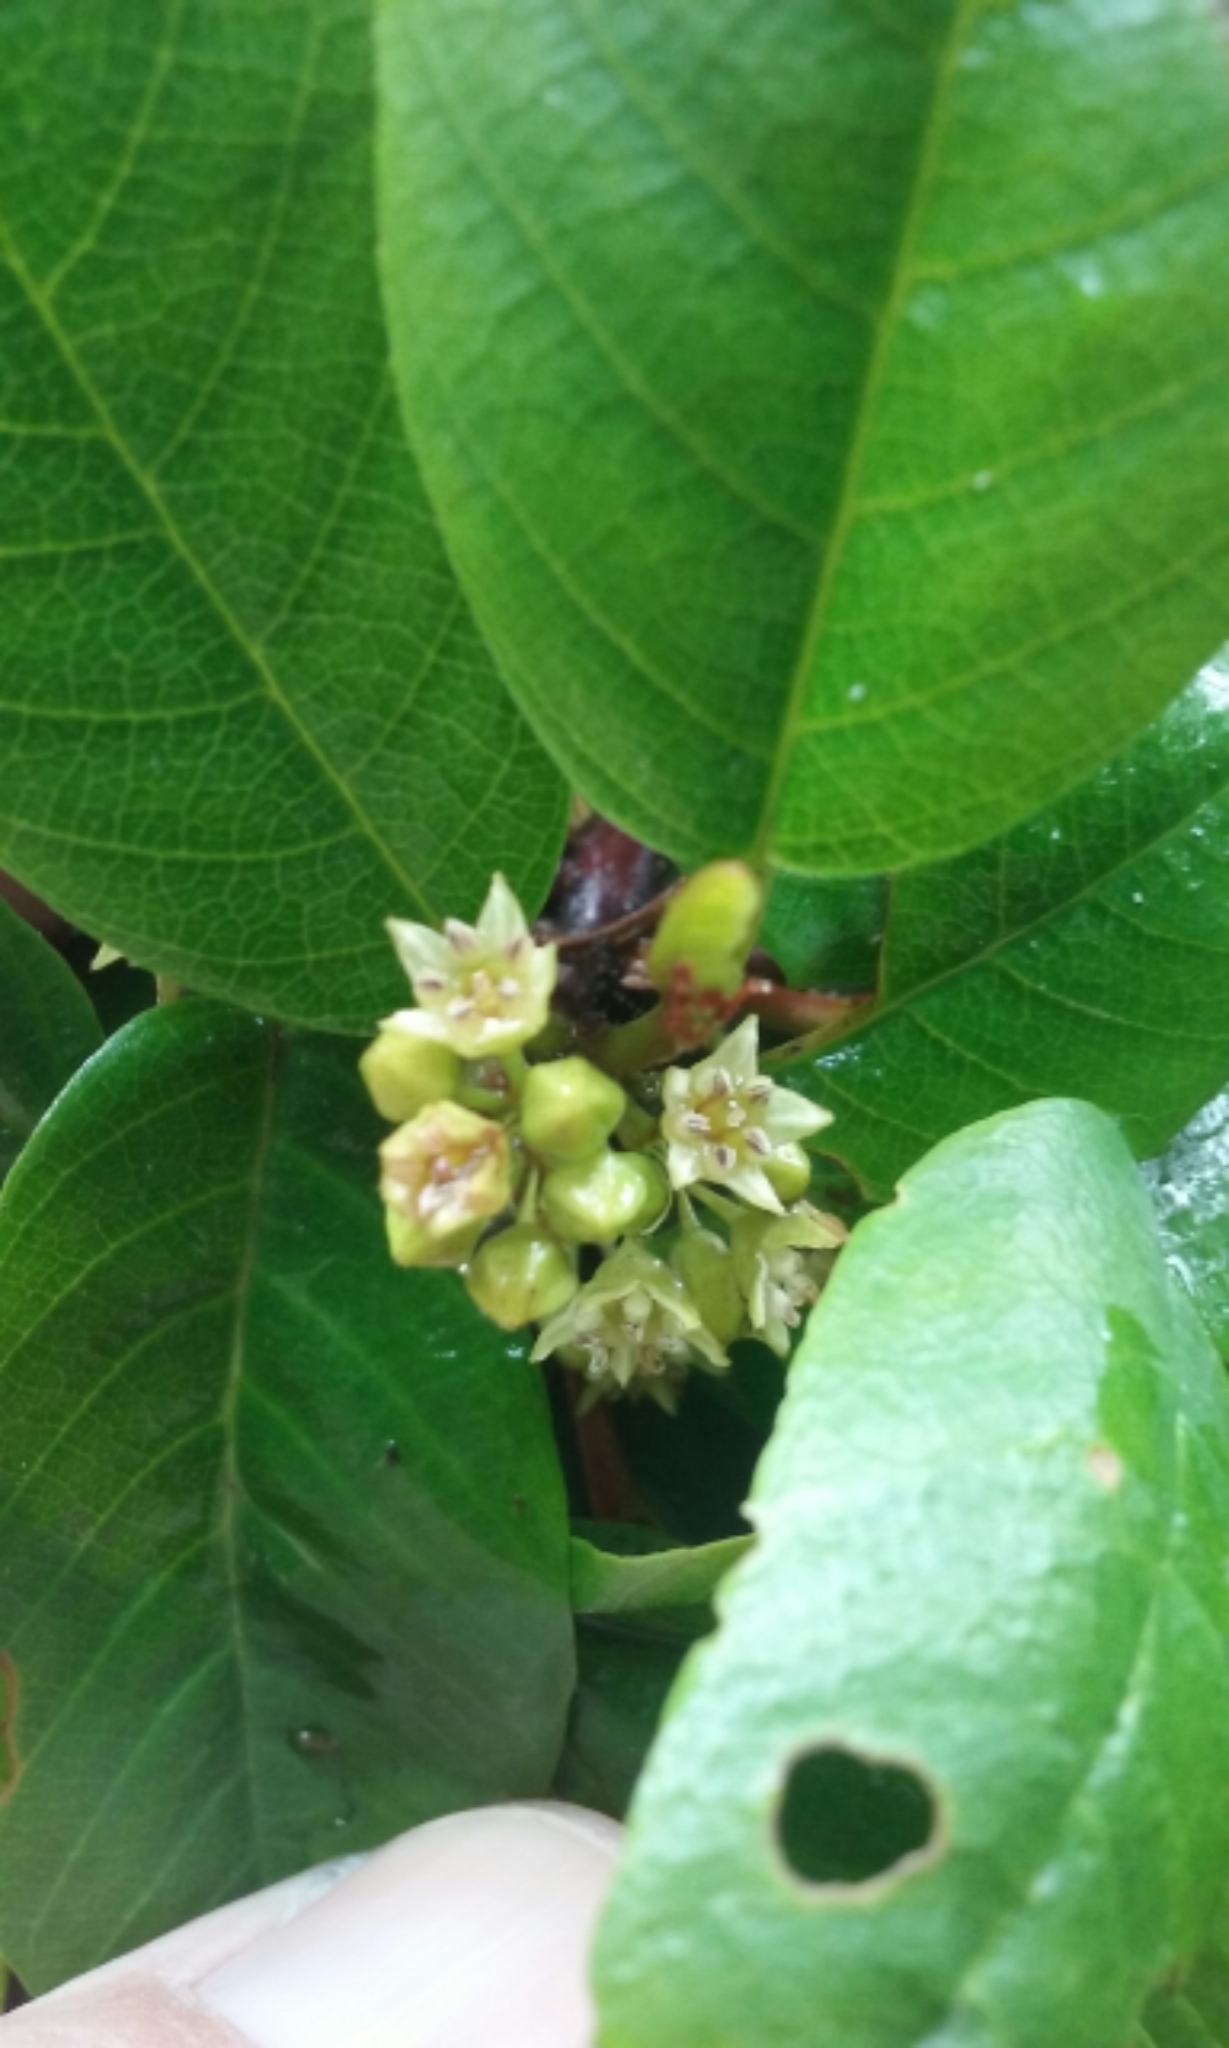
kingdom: Plantae
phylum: Tracheophyta
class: Magnoliopsida
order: Rosales
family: Rhamnaceae
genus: Frangula
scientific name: Frangula californica
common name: California buckthorn
